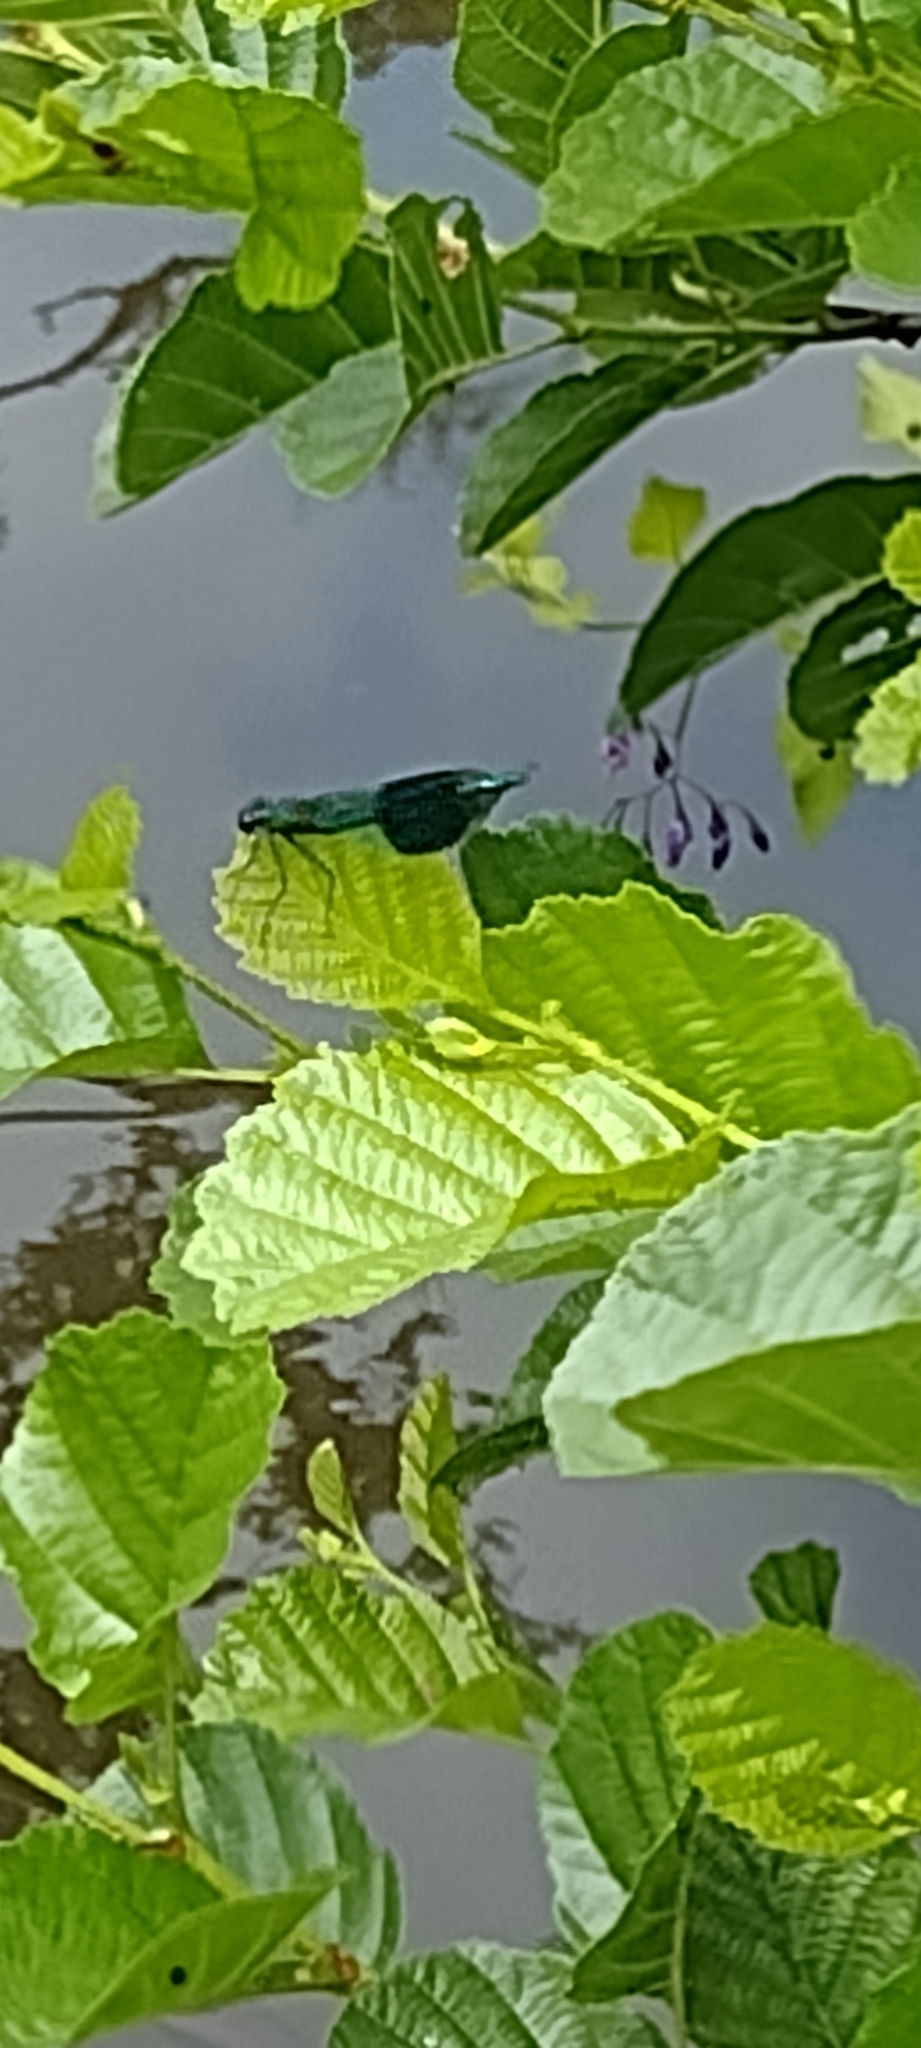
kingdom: Animalia
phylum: Arthropoda
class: Insecta
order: Odonata
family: Calopterygidae
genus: Calopteryx
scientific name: Calopteryx splendens
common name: Banded demoiselle
